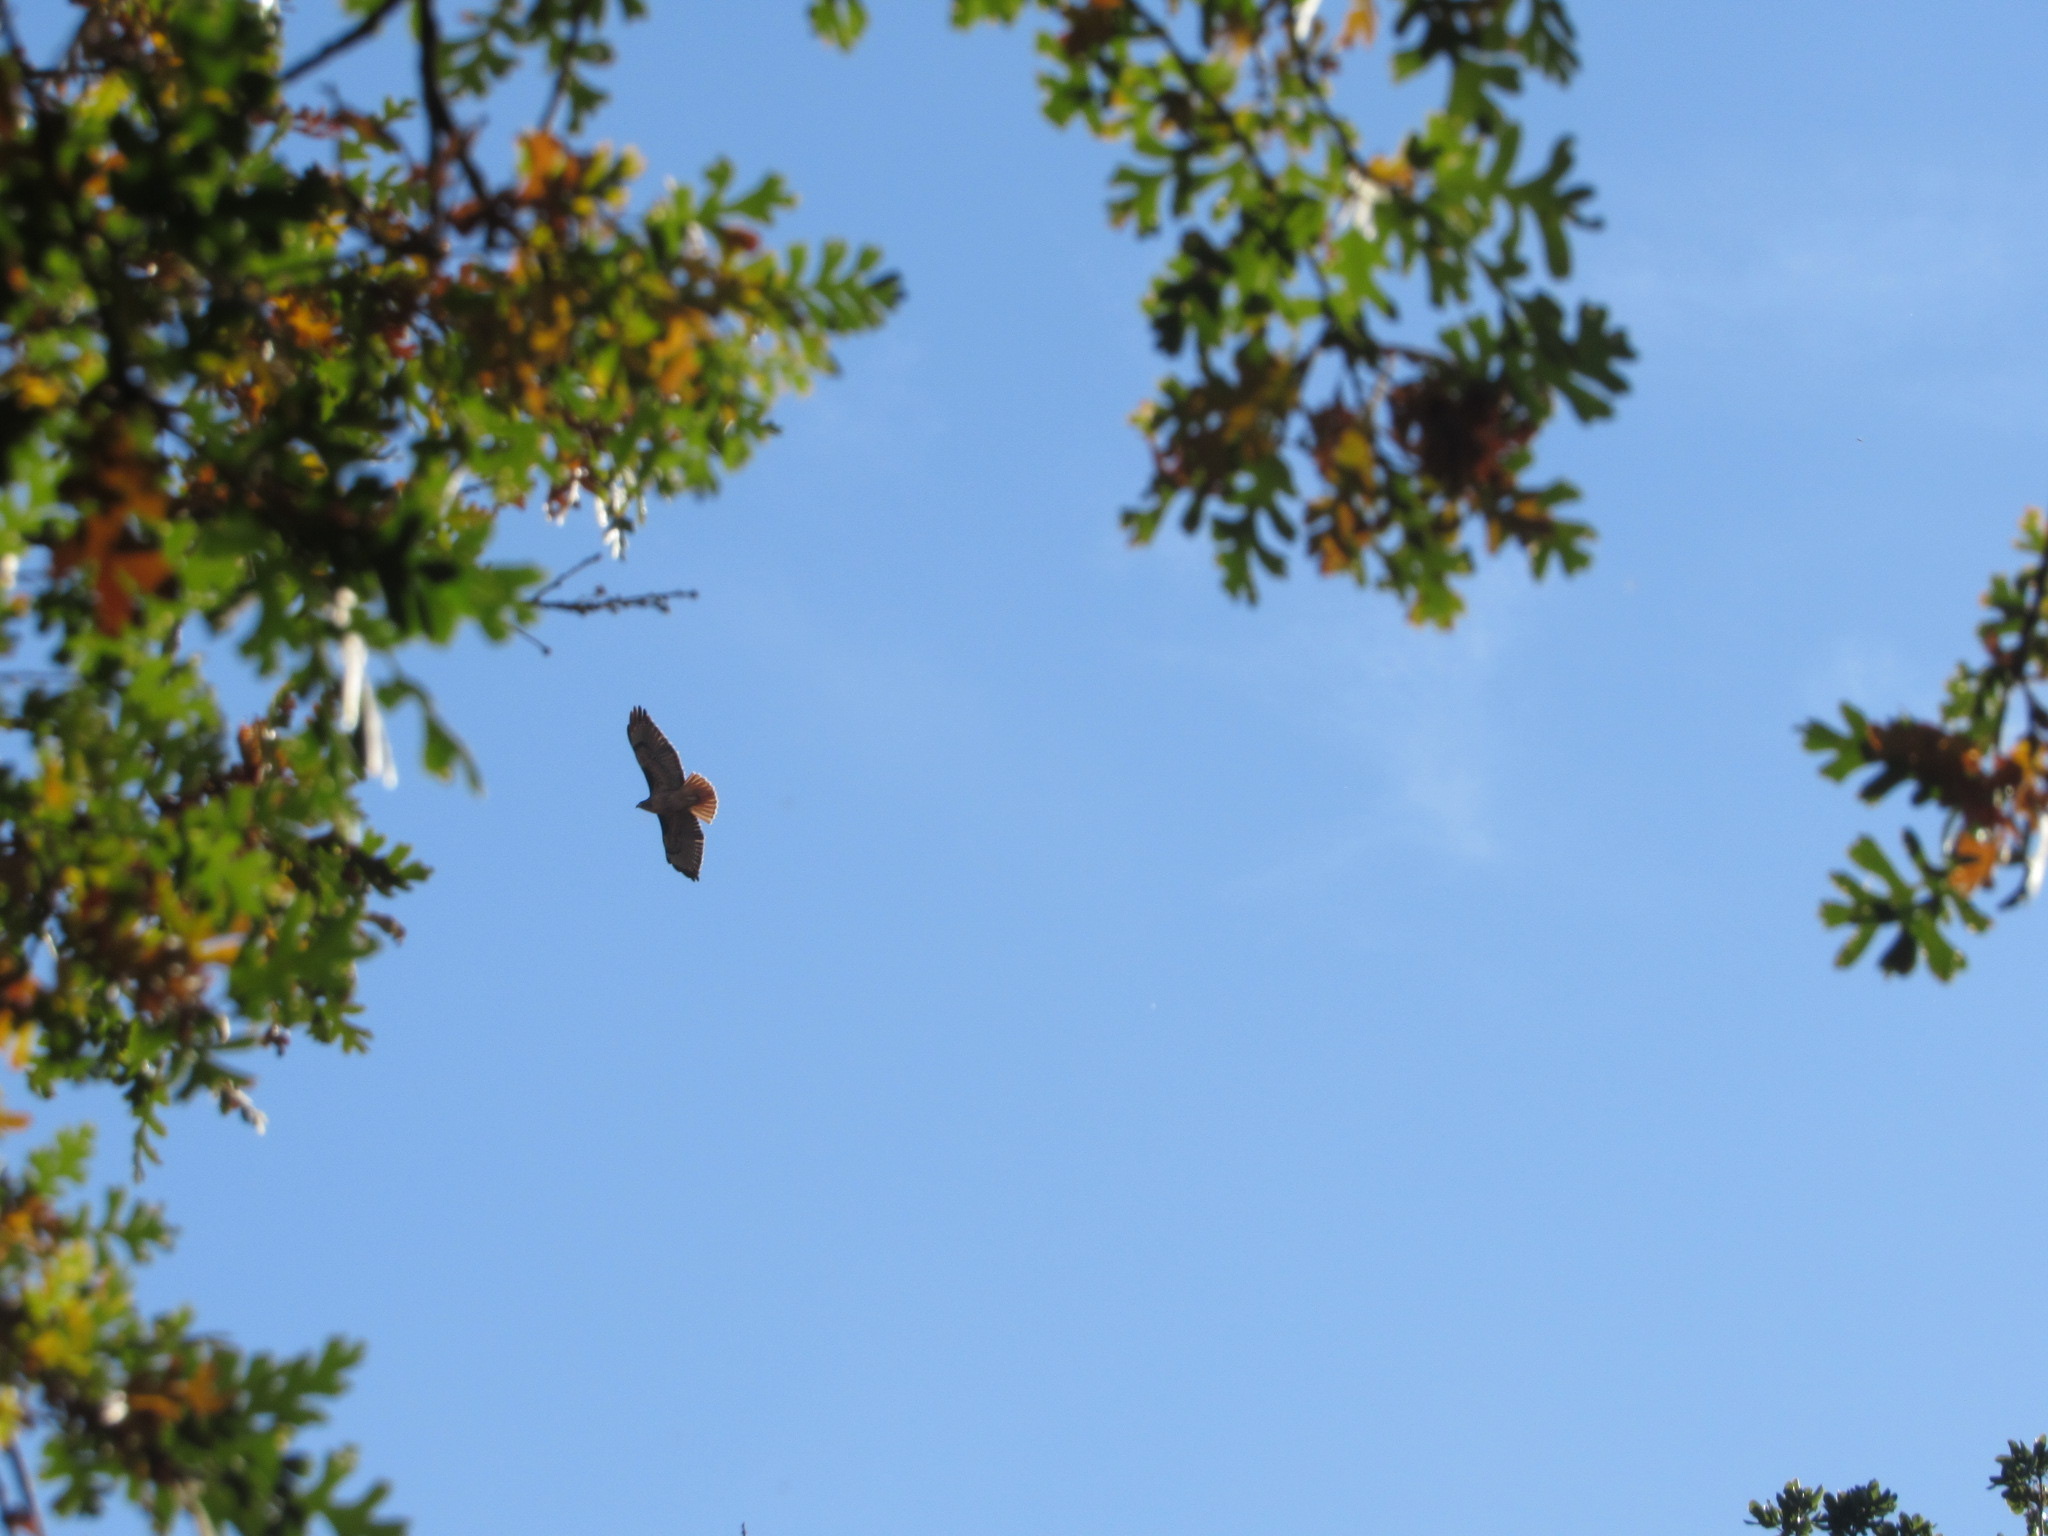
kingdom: Animalia
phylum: Chordata
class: Aves
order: Accipitriformes
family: Accipitridae
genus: Buteo
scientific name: Buteo jamaicensis
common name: Red-tailed hawk
